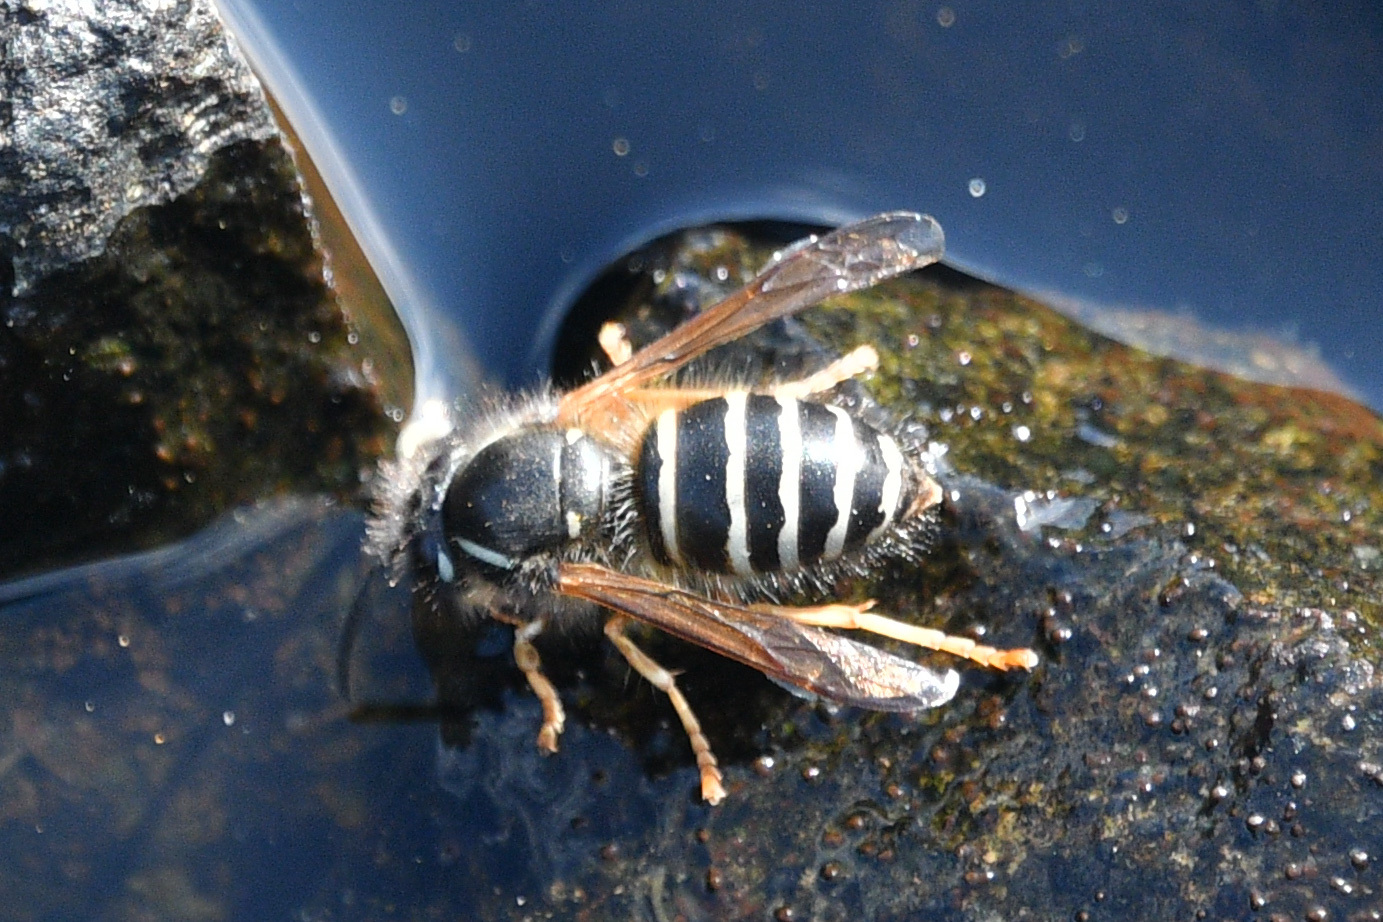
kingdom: Animalia
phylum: Arthropoda
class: Insecta
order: Hymenoptera
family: Vespidae
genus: Dolichovespula
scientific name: Dolichovespula norwegica
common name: Norwegian wasp
